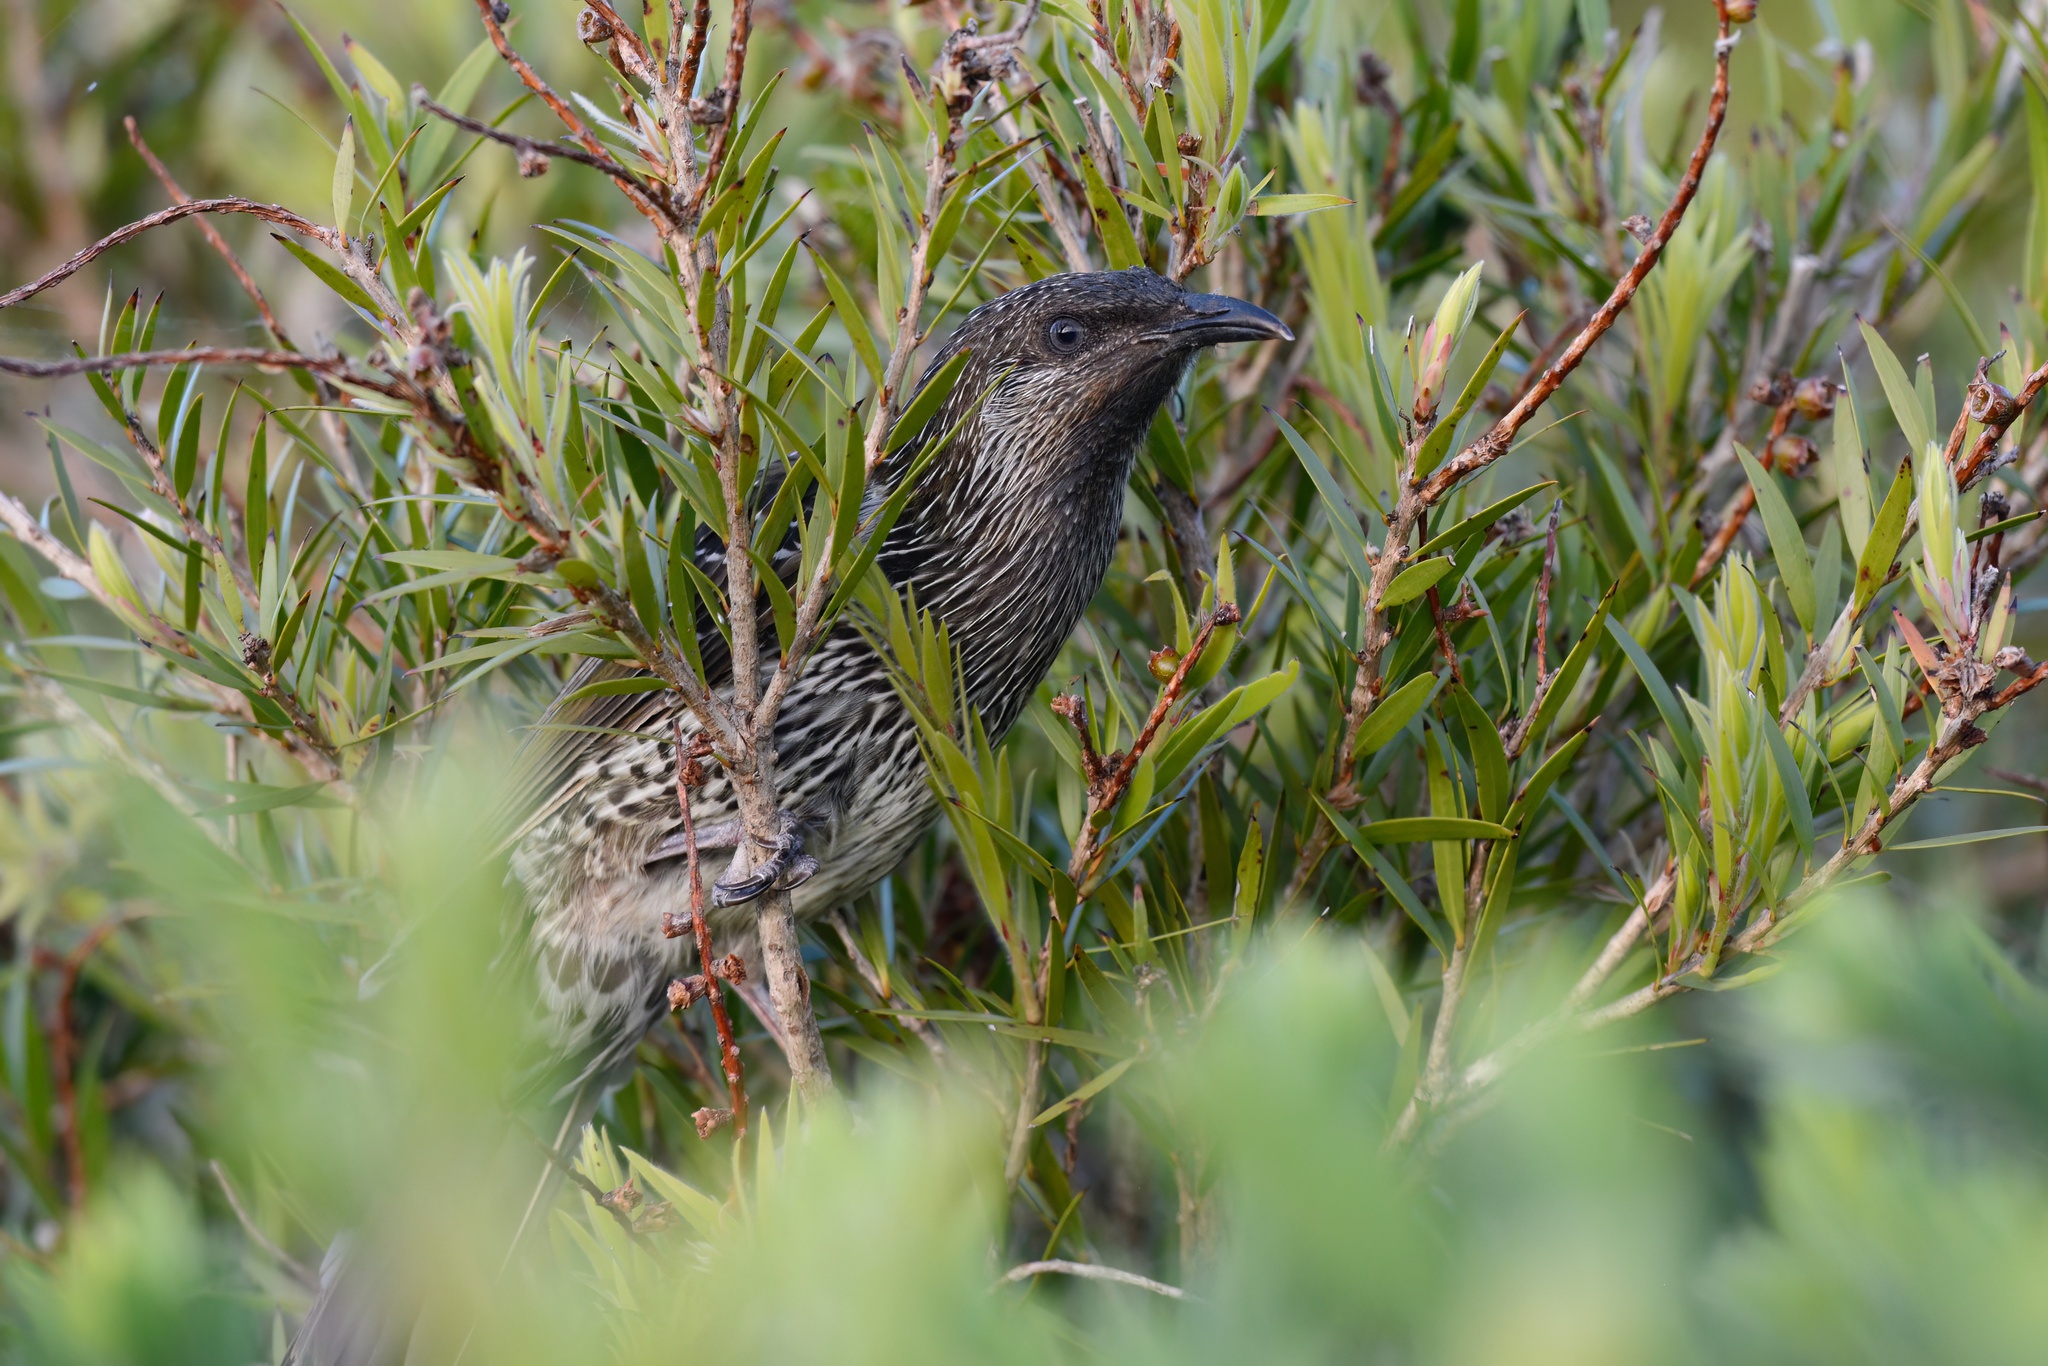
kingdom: Animalia
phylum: Chordata
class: Aves
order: Passeriformes
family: Meliphagidae
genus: Anthochaera
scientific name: Anthochaera chrysoptera
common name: Little wattlebird
